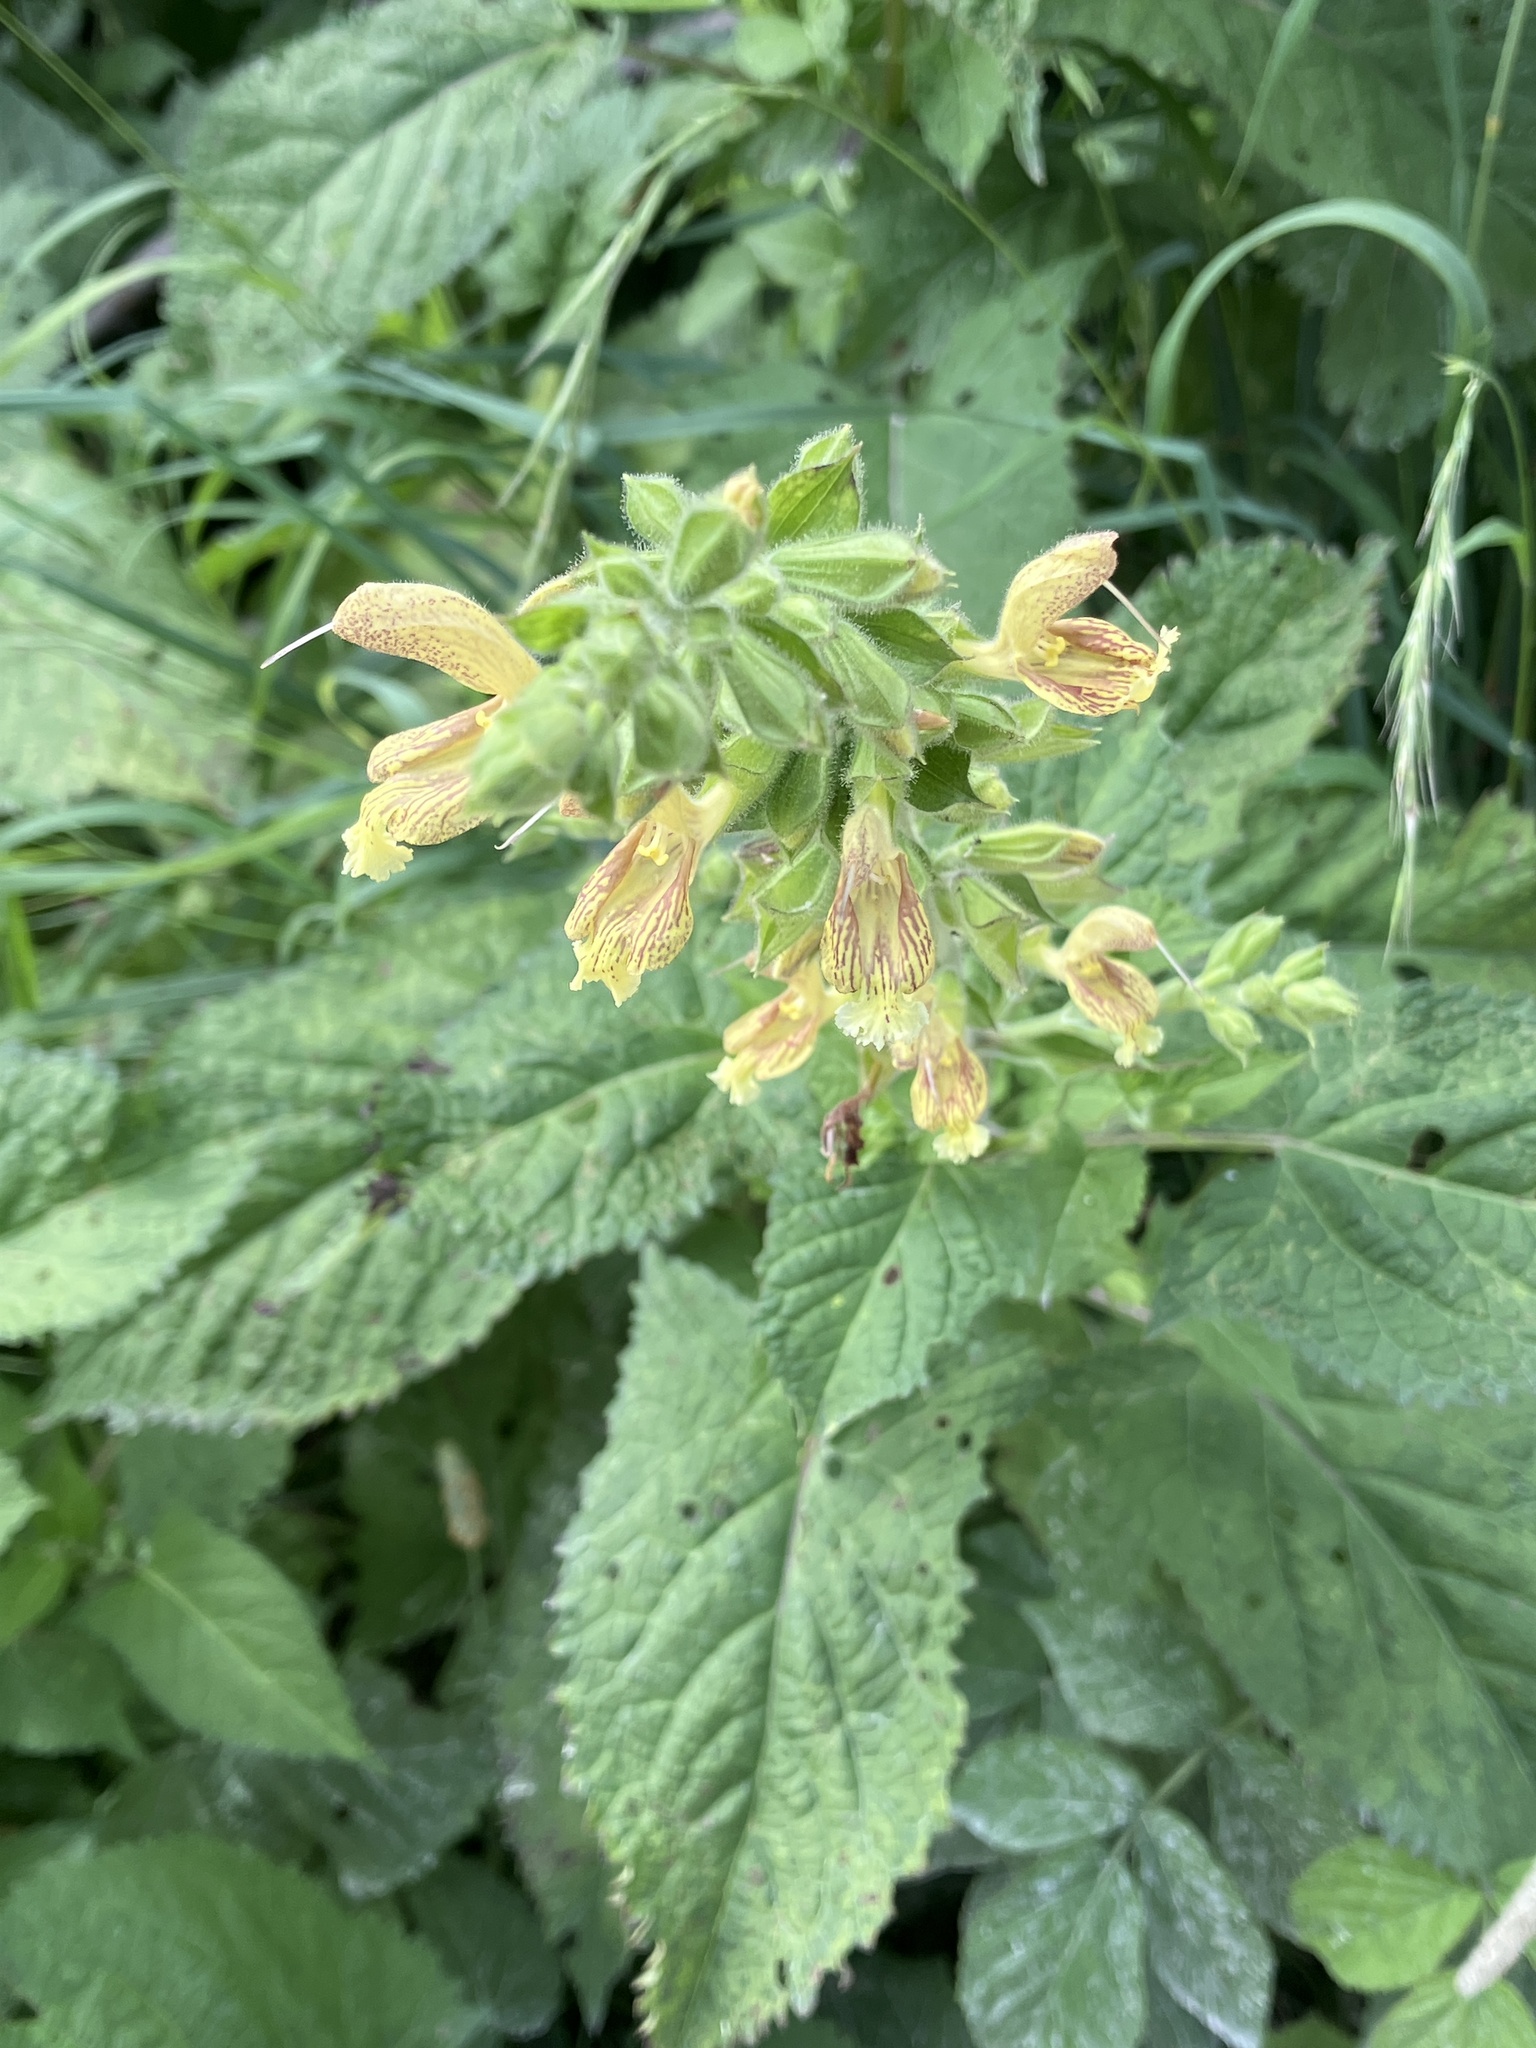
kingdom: Plantae
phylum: Tracheophyta
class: Magnoliopsida
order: Lamiales
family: Lamiaceae
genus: Salvia
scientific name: Salvia glutinosa
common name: Sticky clary
